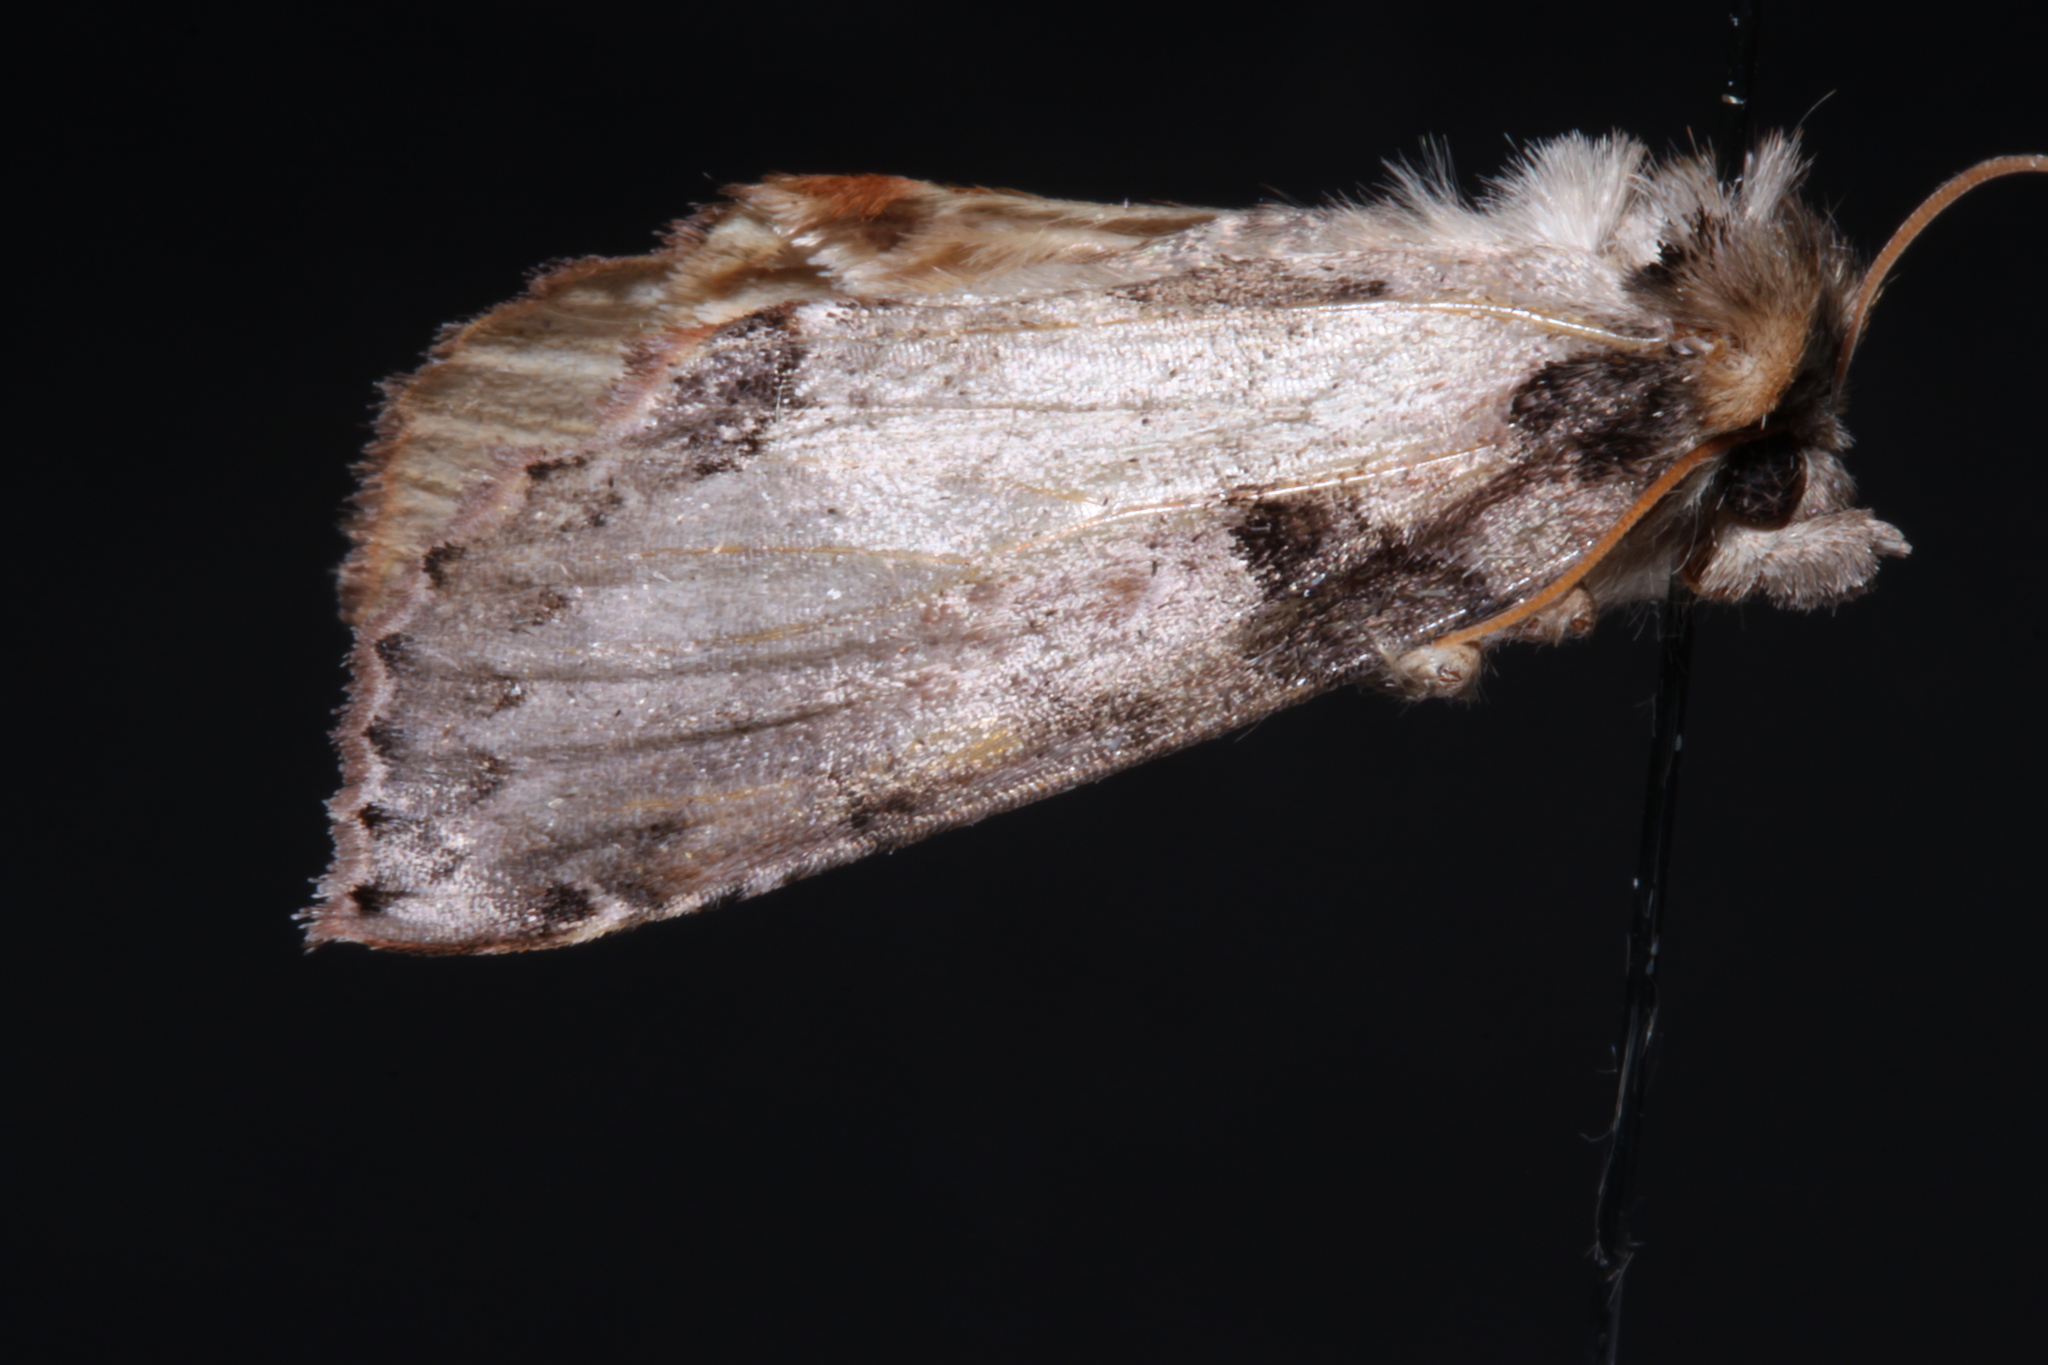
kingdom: Animalia
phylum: Arthropoda
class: Insecta
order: Lepidoptera
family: Drepanidae
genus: Pseudothyatira
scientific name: Pseudothyatira cymatophoroides
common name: Tufted thyatirid moth
